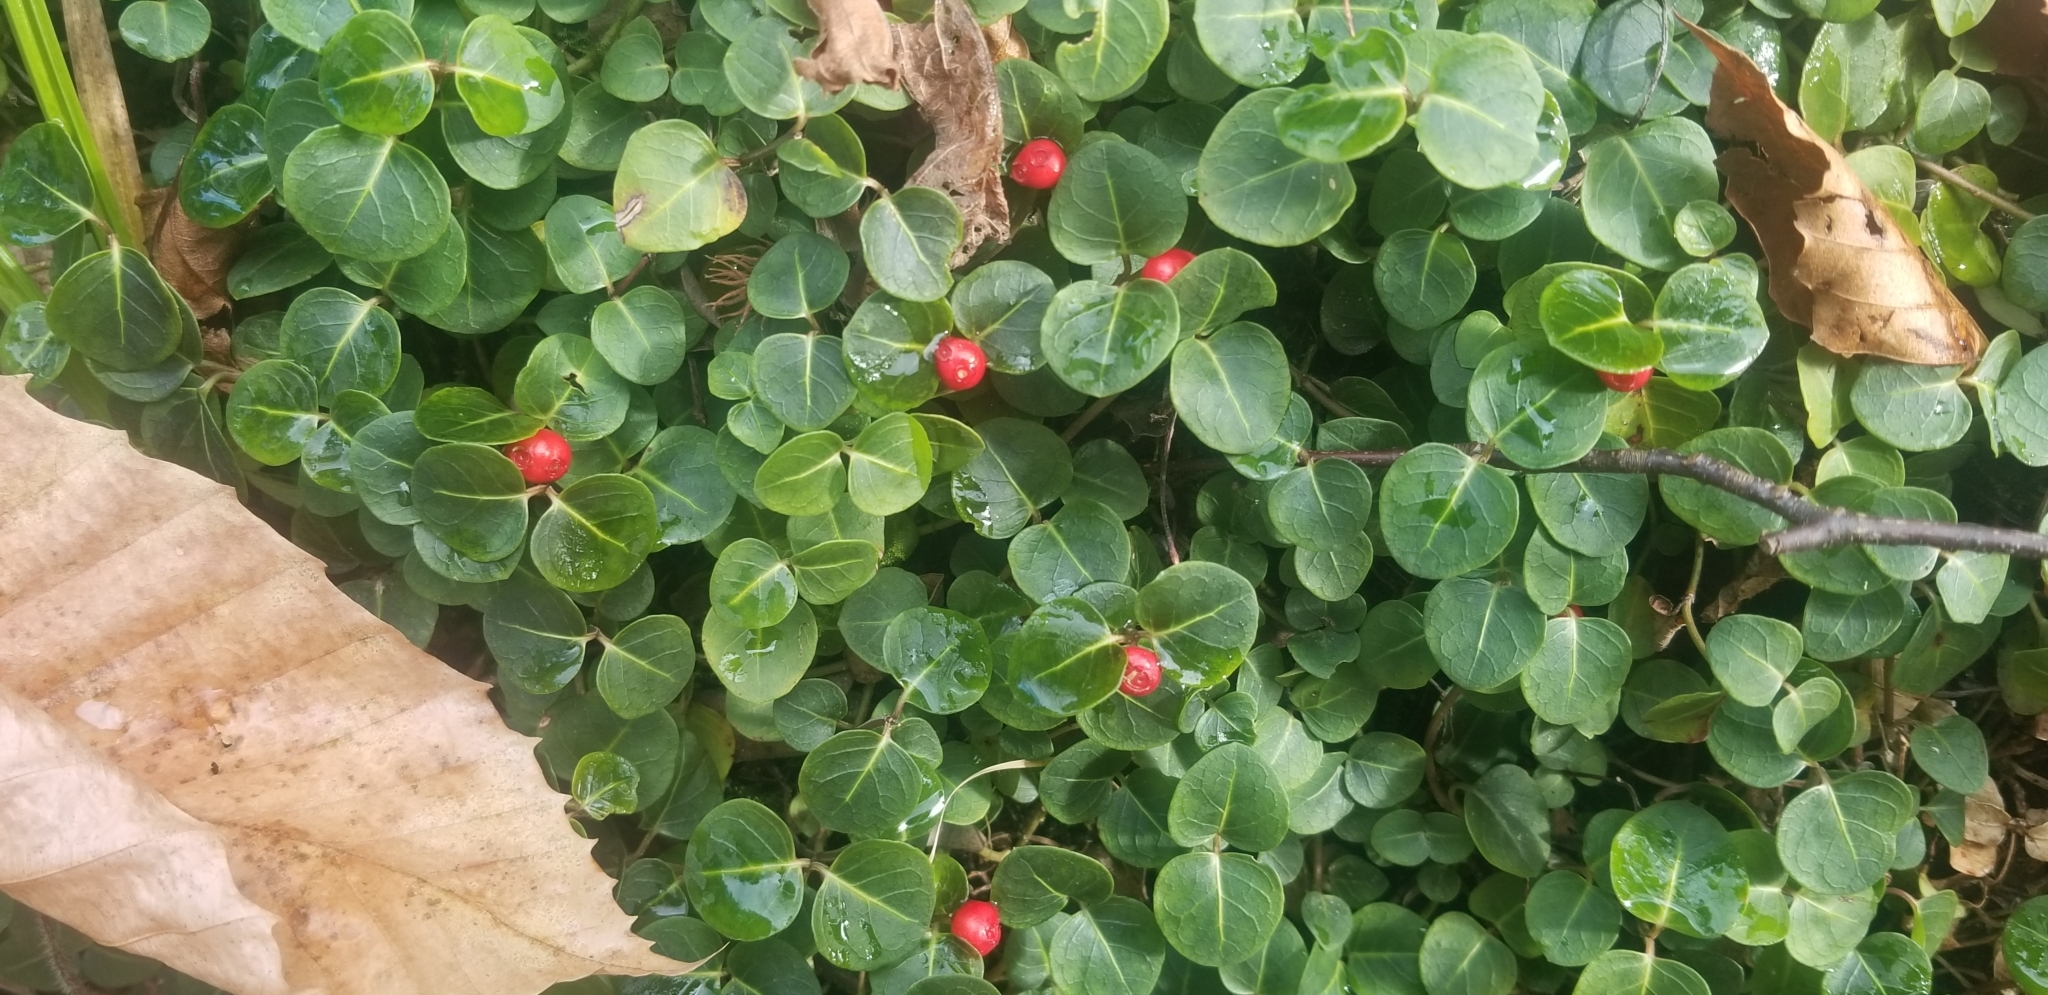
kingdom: Plantae
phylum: Tracheophyta
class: Magnoliopsida
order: Gentianales
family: Rubiaceae
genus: Mitchella
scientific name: Mitchella repens
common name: Partridge-berry
